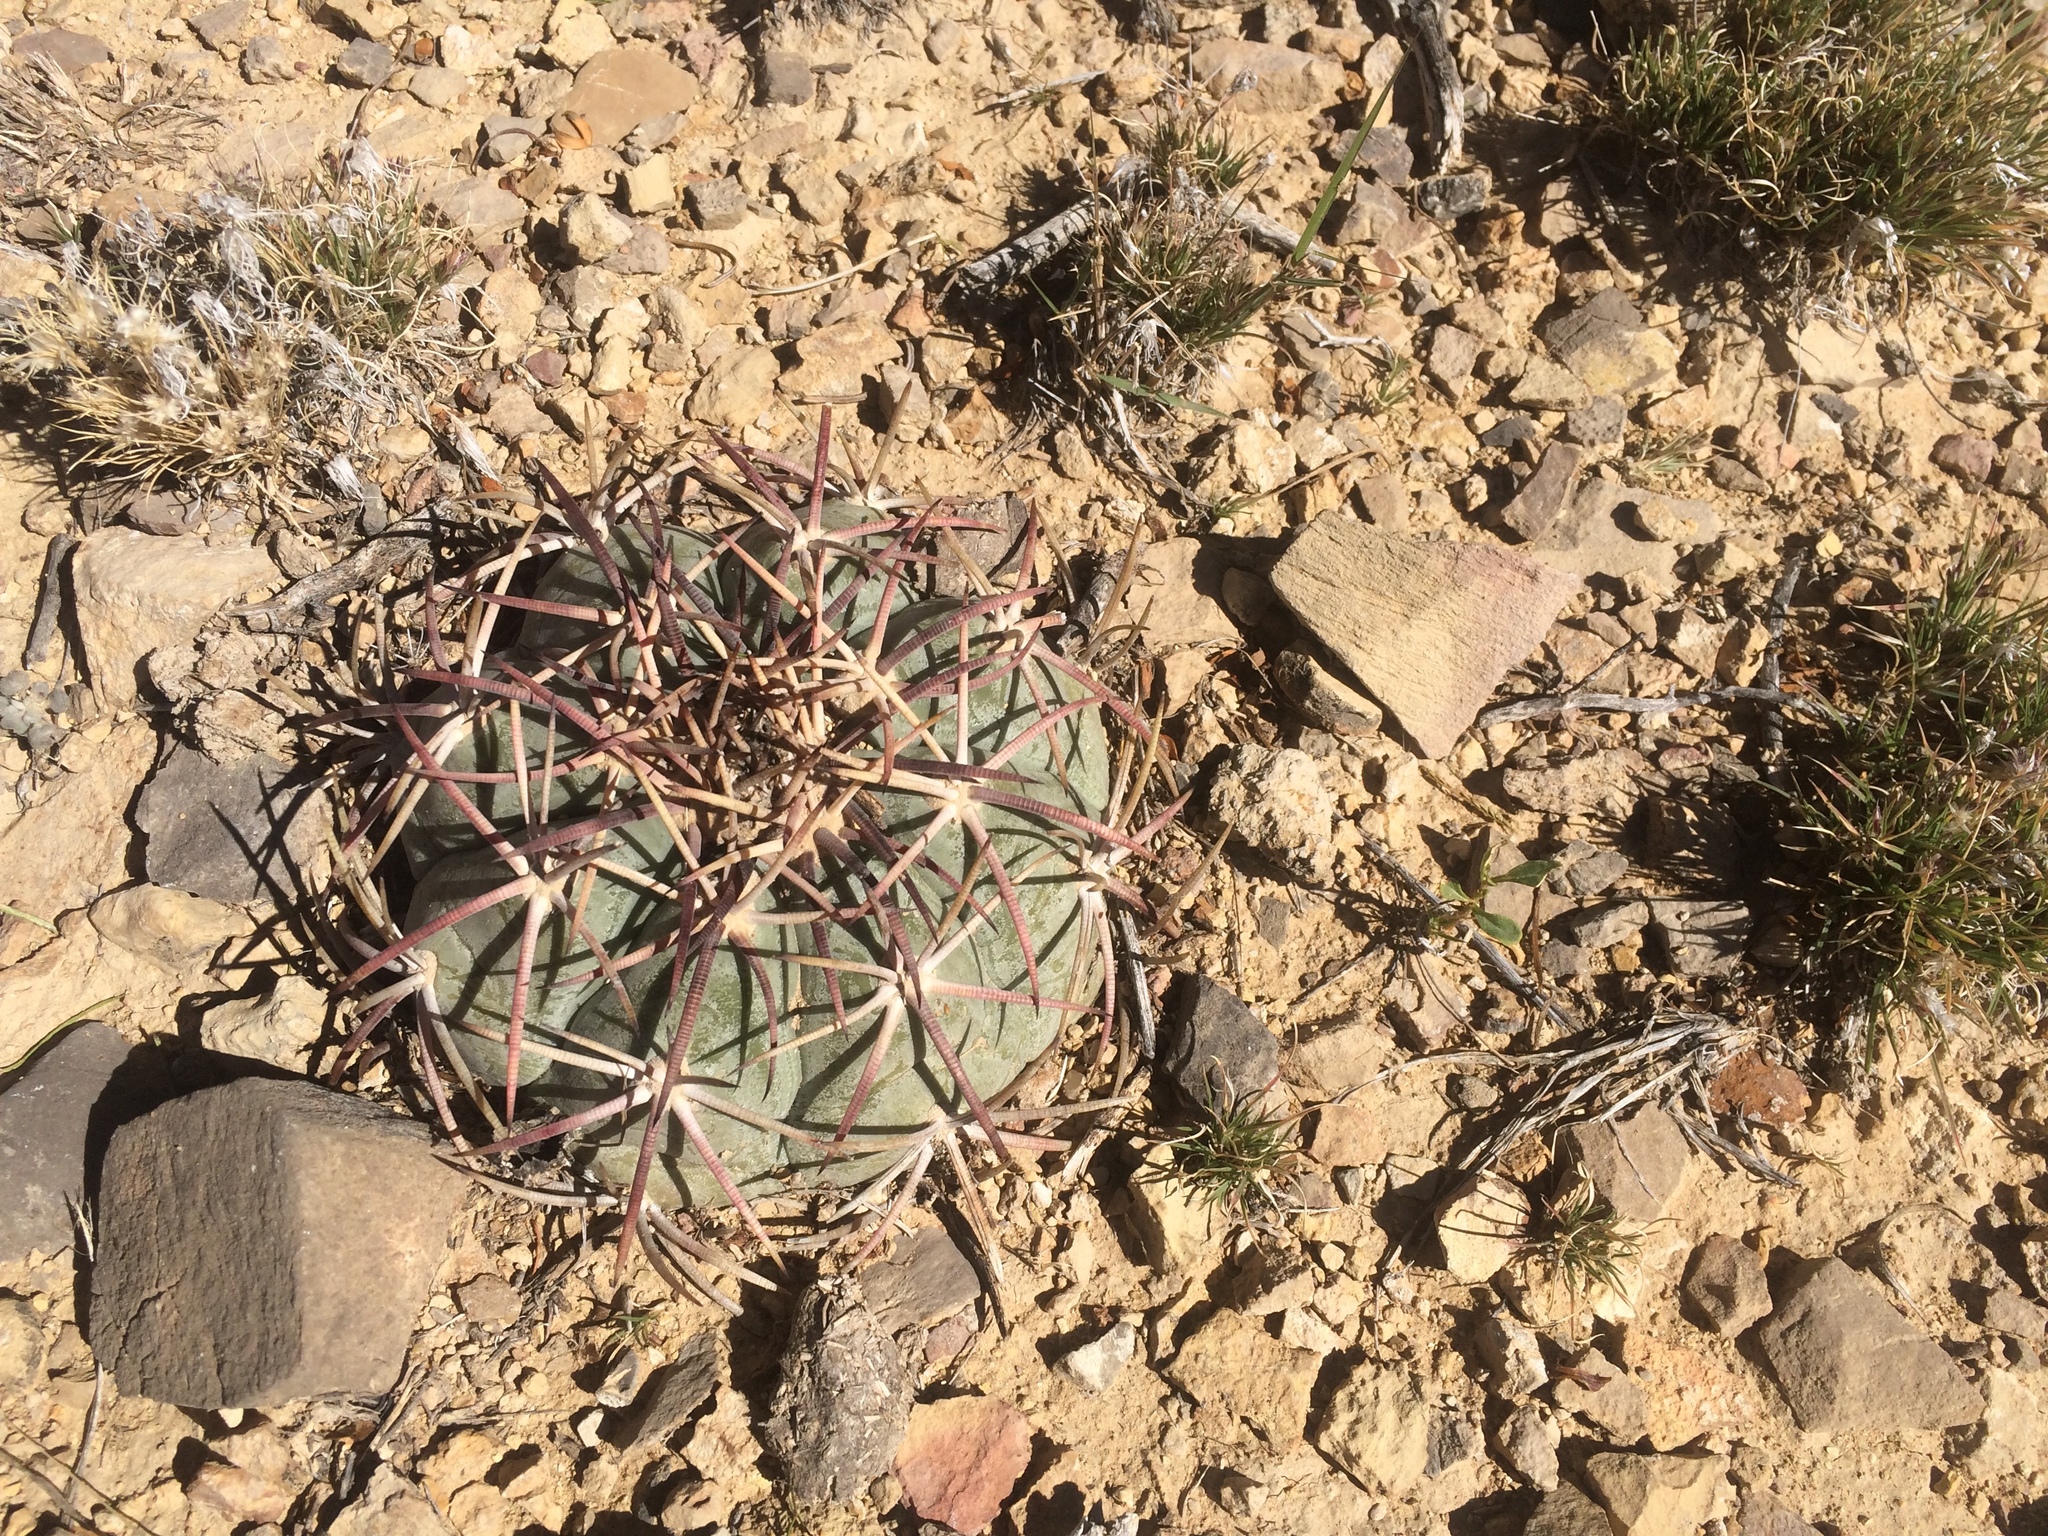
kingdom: Plantae
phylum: Tracheophyta
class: Magnoliopsida
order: Caryophyllales
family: Cactaceae
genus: Echinocactus
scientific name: Echinocactus horizonthalonius
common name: Devilshead
